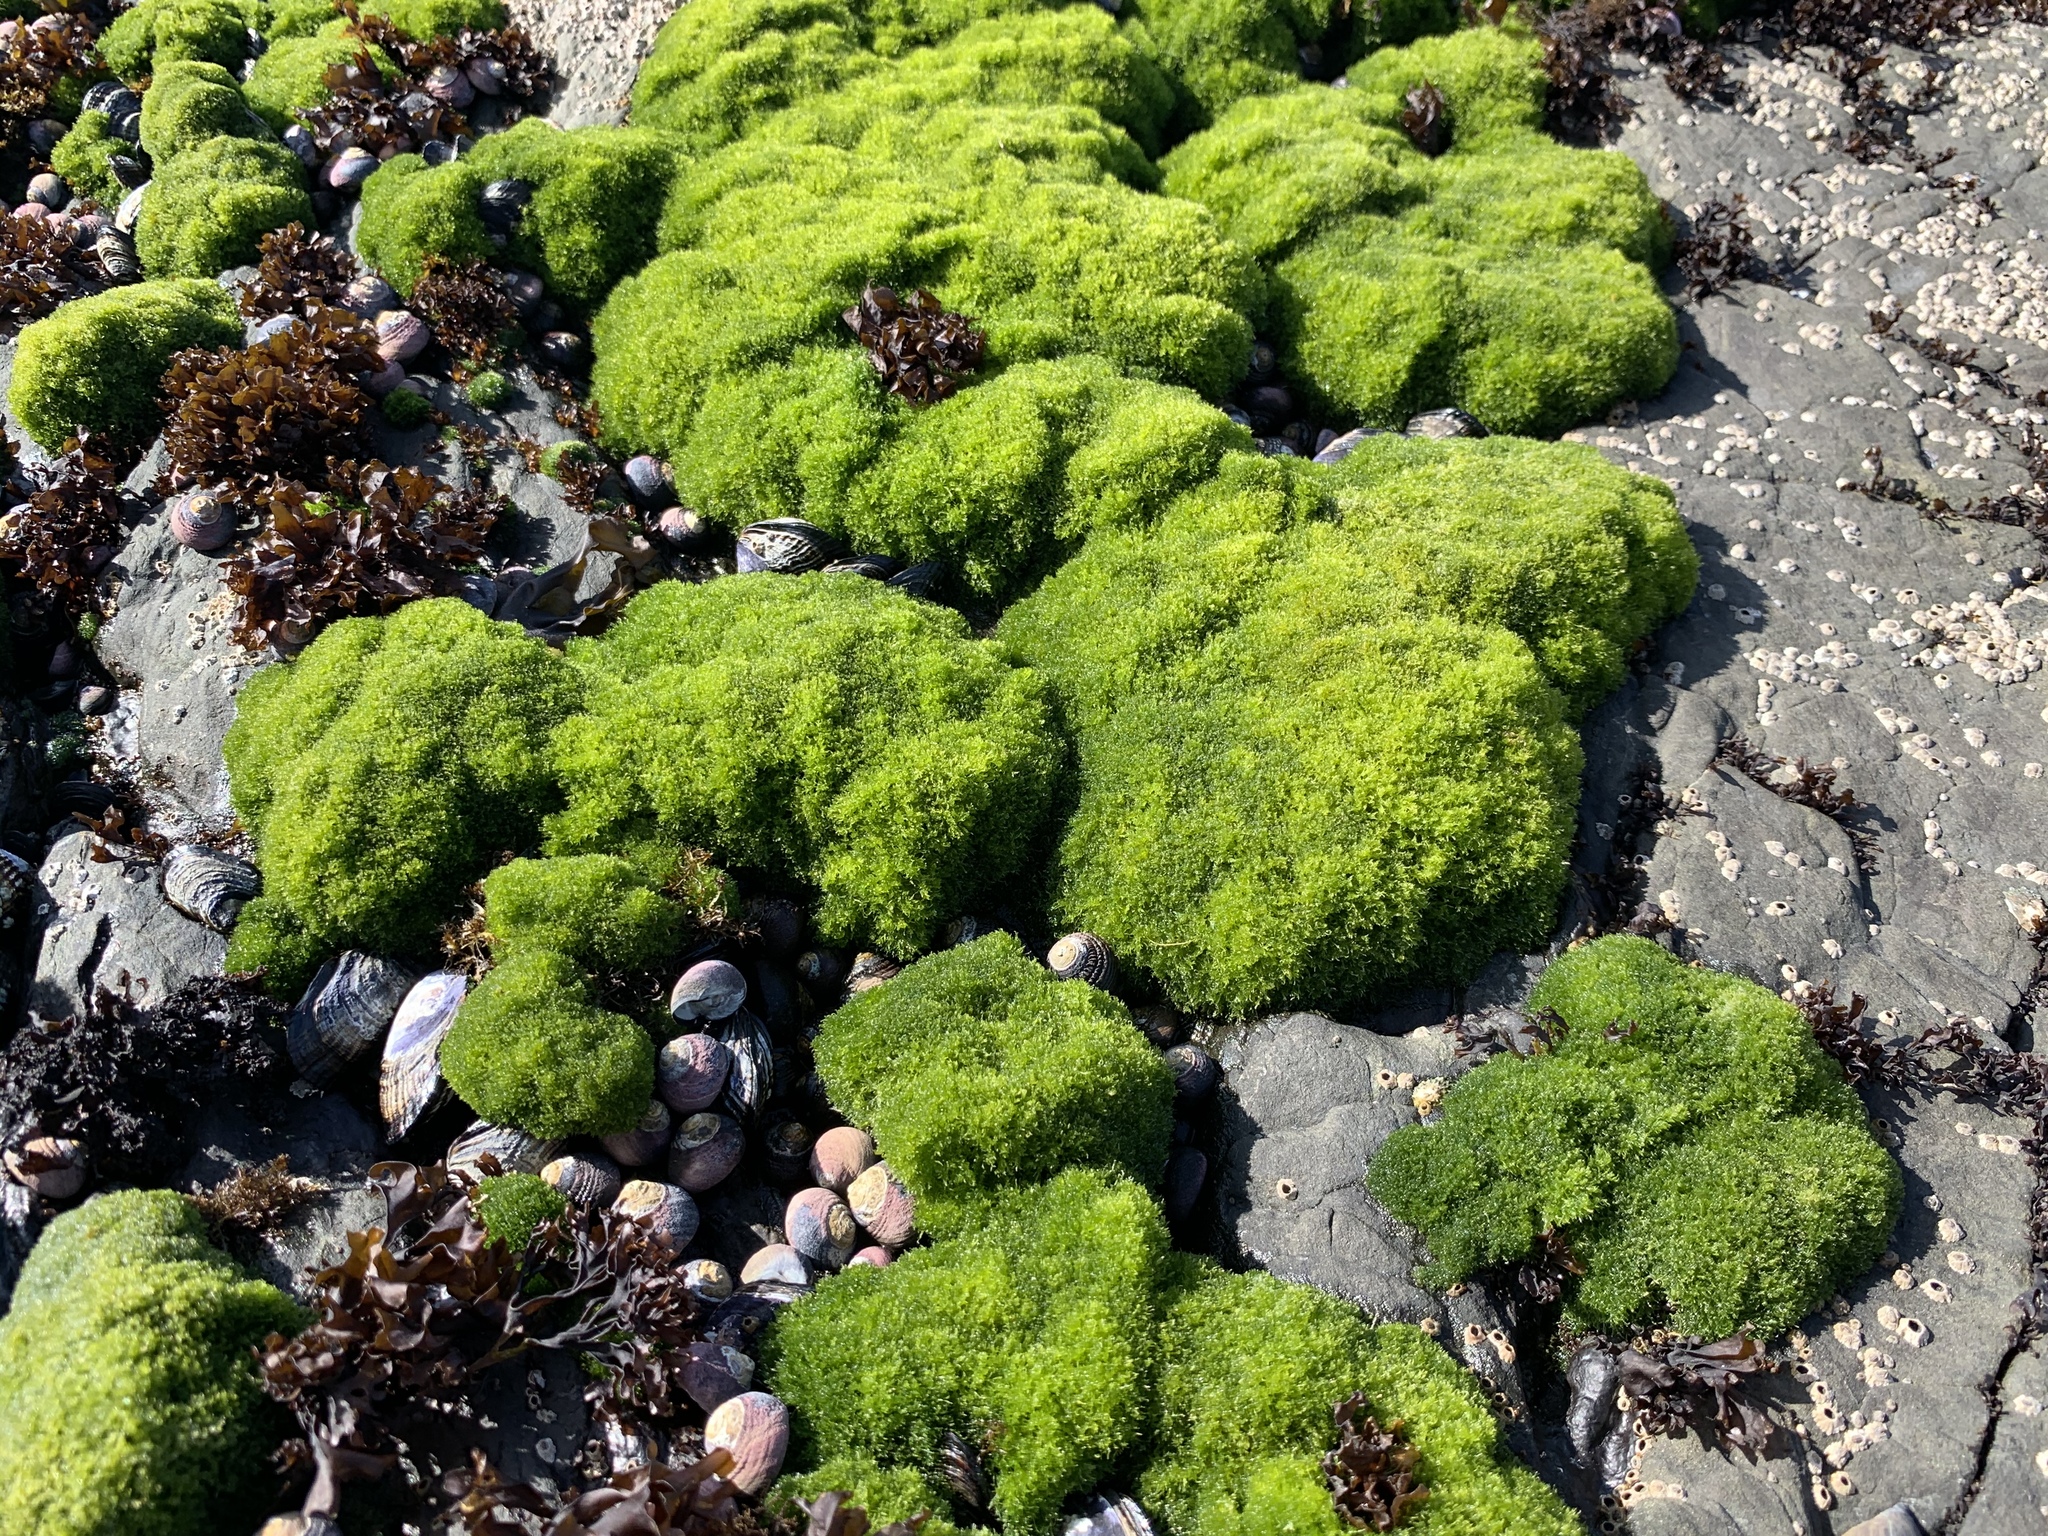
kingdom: Plantae
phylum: Chlorophyta
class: Ulvophyceae
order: Cladophorales
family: Cladophoraceae
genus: Cladophora
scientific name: Cladophora columbiana
